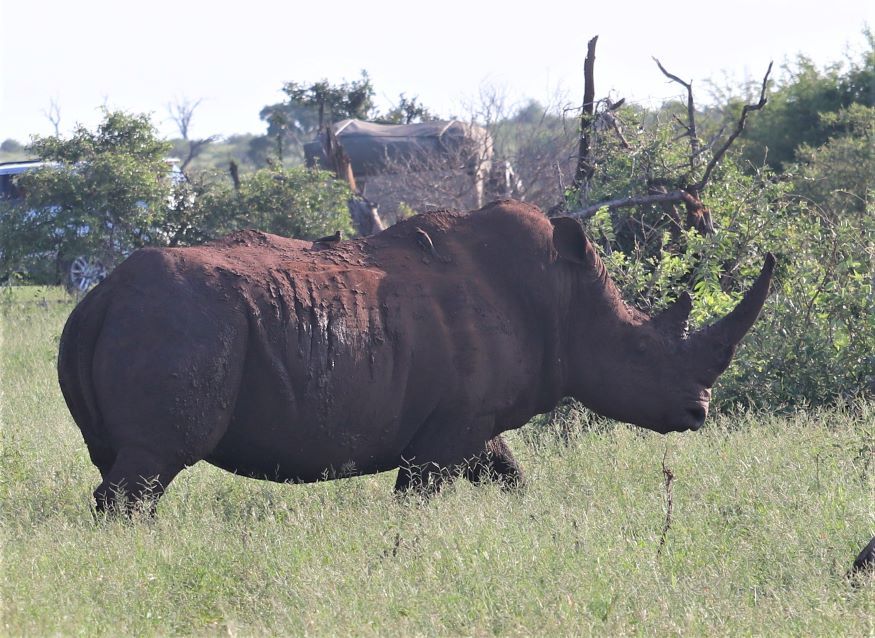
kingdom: Animalia
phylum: Chordata
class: Mammalia
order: Perissodactyla
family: Rhinocerotidae
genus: Ceratotherium
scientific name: Ceratotherium simum
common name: White rhinoceros
